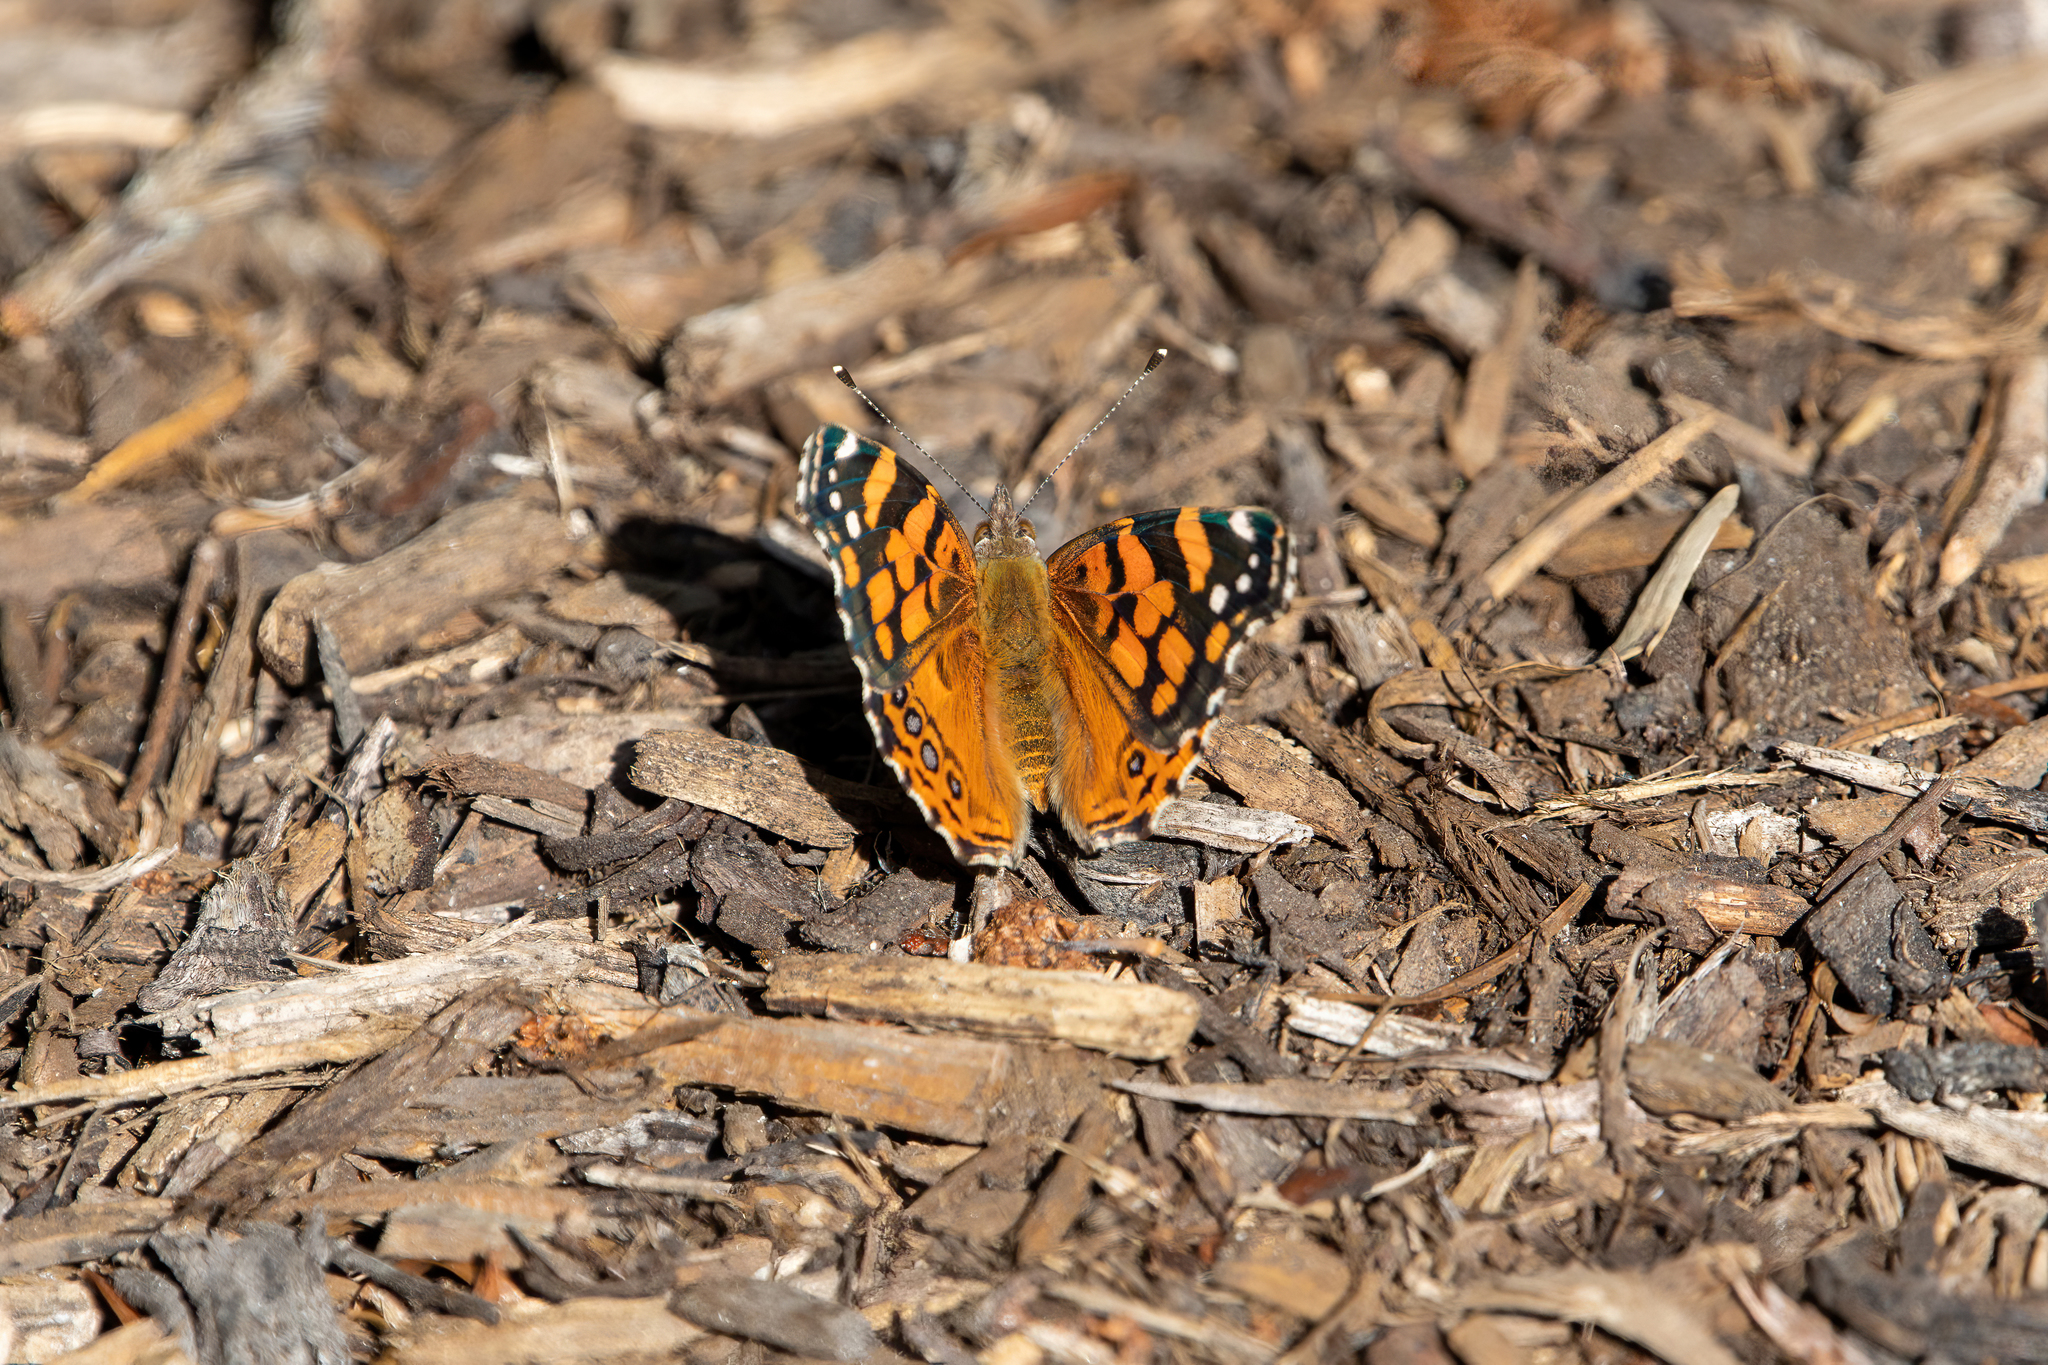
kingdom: Animalia
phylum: Arthropoda
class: Insecta
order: Lepidoptera
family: Nymphalidae
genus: Vanessa
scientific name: Vanessa annabella
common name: West coast lady
